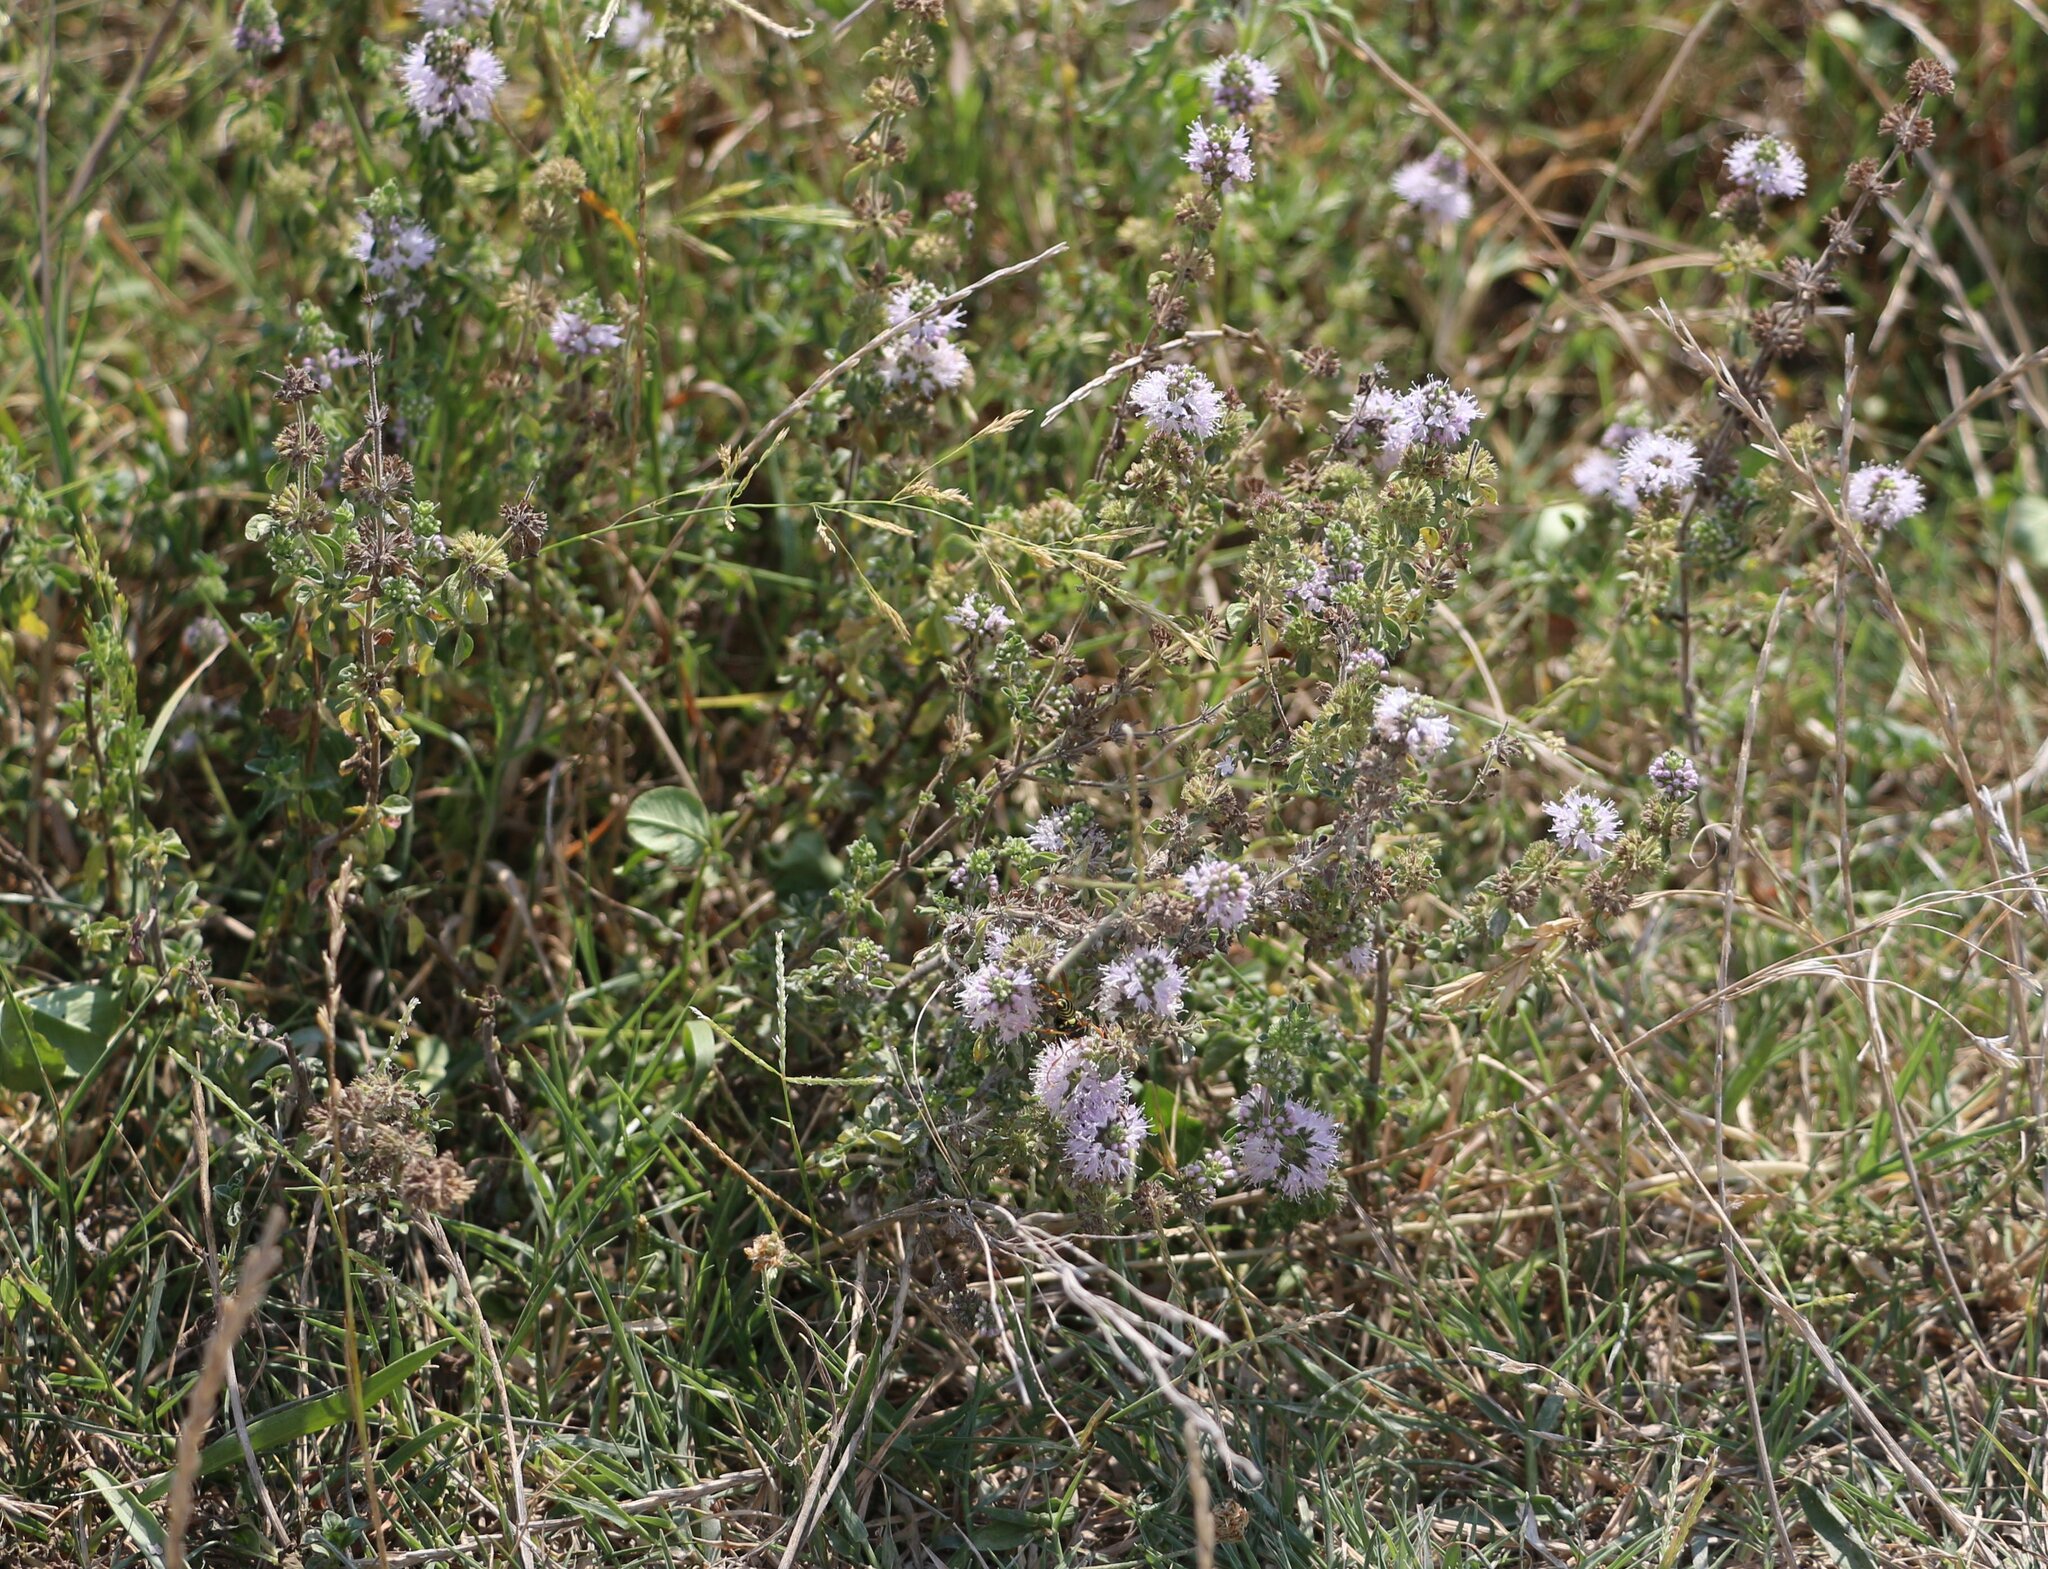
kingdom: Plantae
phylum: Tracheophyta
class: Magnoliopsida
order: Lamiales
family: Lamiaceae
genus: Mentha
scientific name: Mentha pulegium
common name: Pennyroyal
